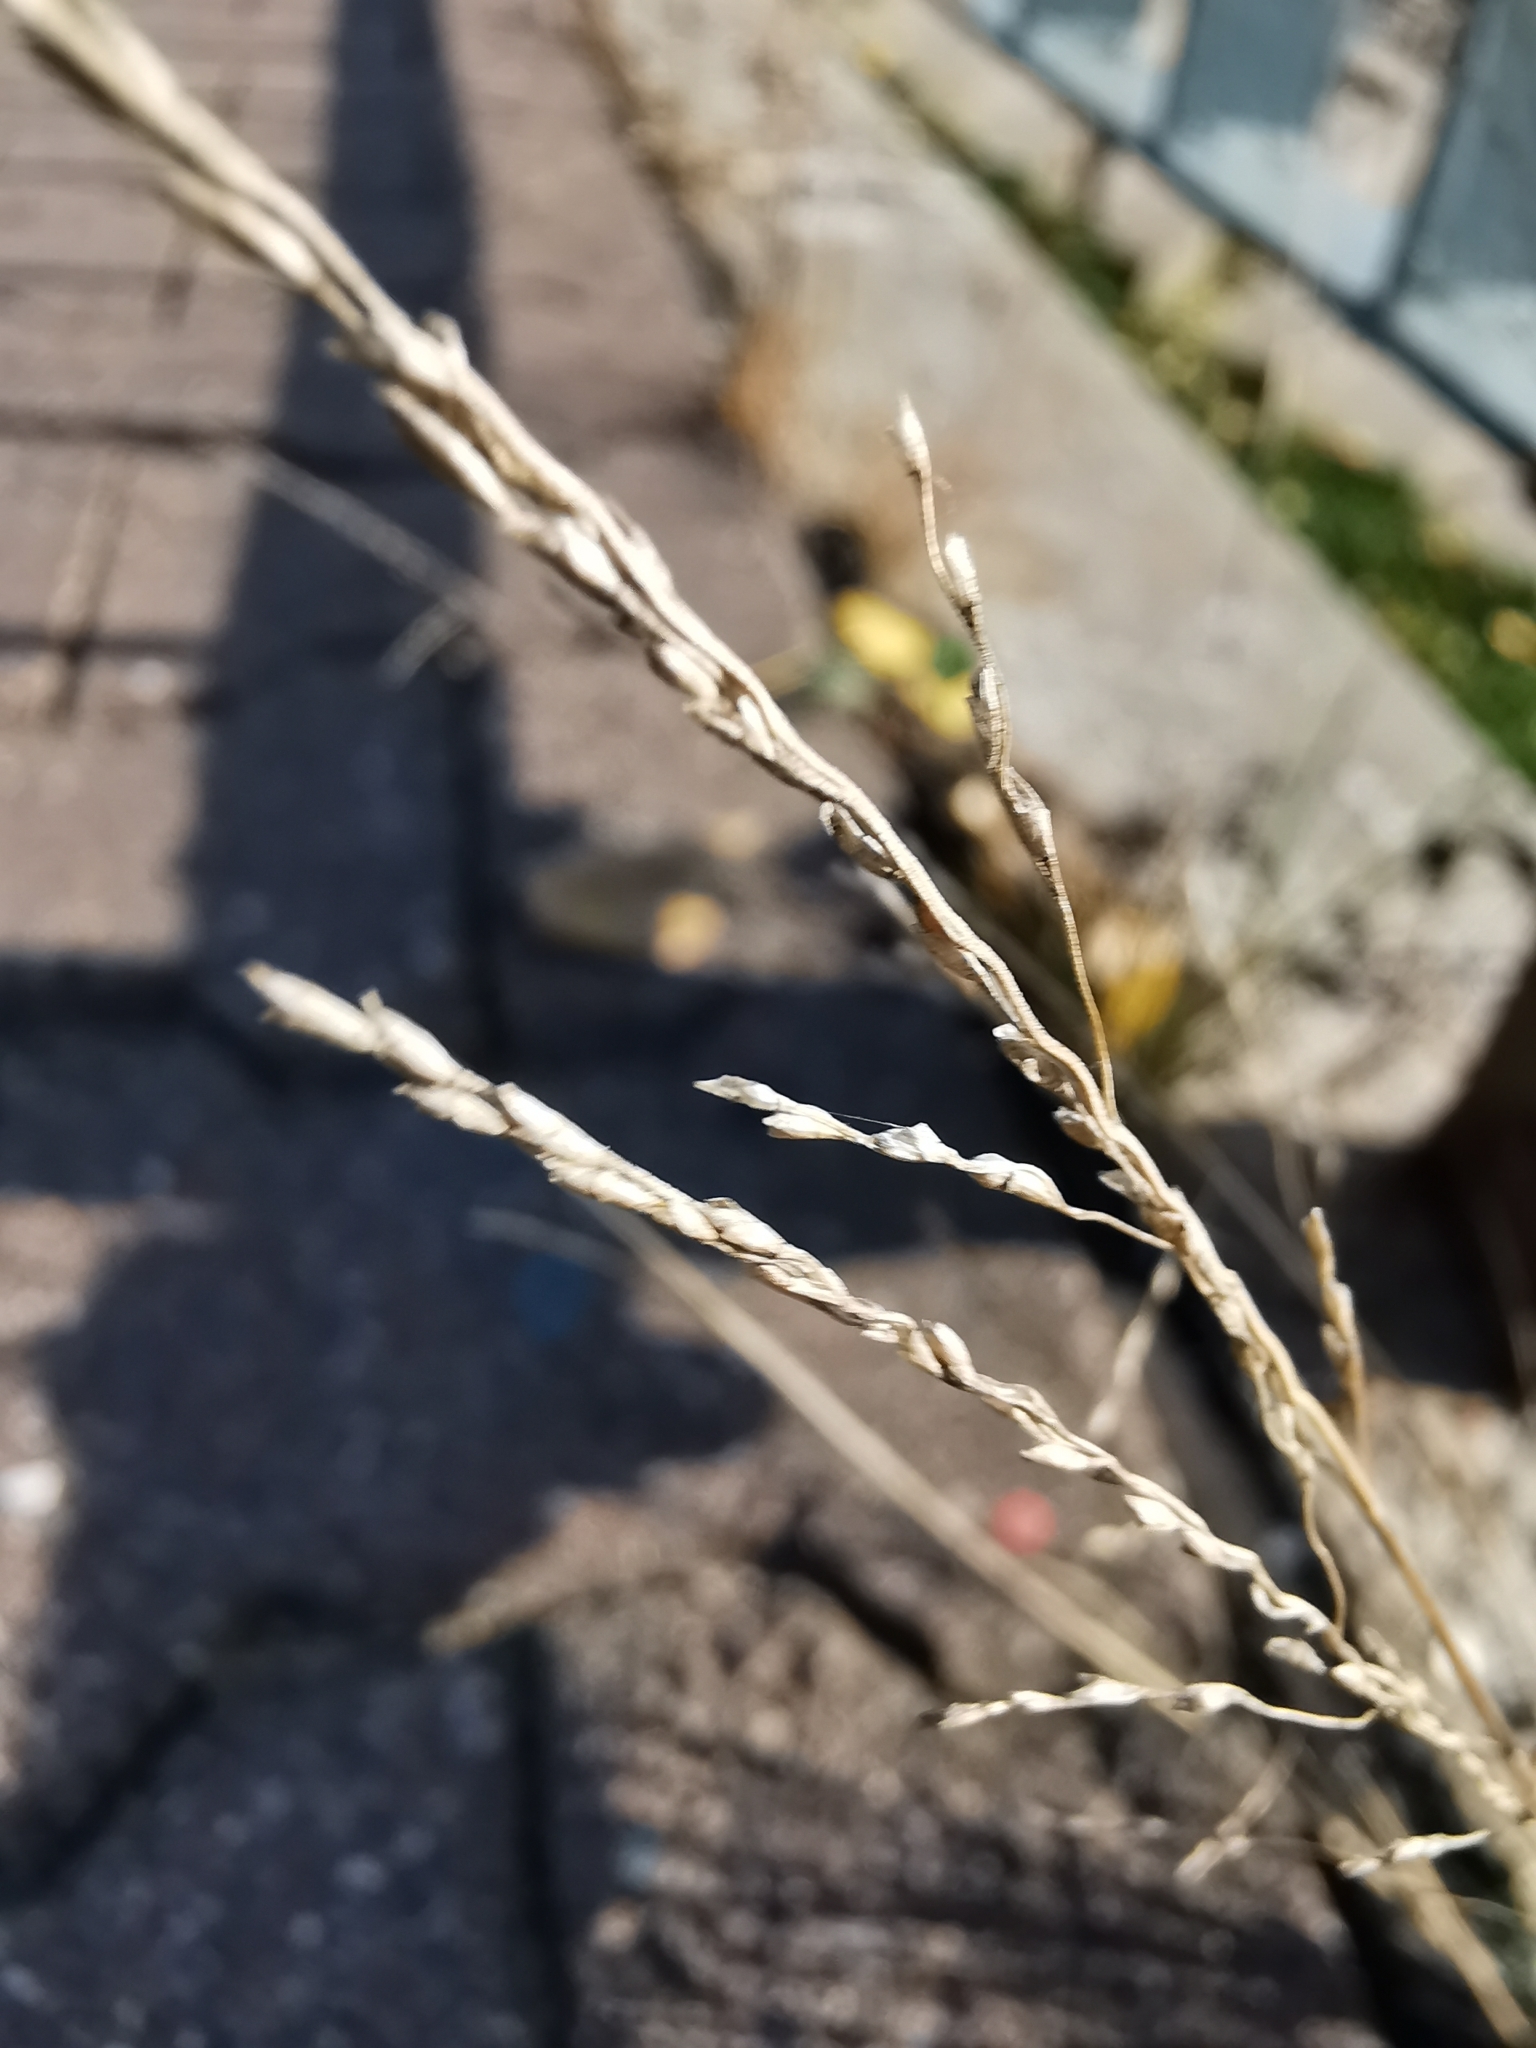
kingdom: Plantae
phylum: Tracheophyta
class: Liliopsida
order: Poales
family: Poaceae
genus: Puccinellia
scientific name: Puccinellia distans
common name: Weeping alkaligrass
